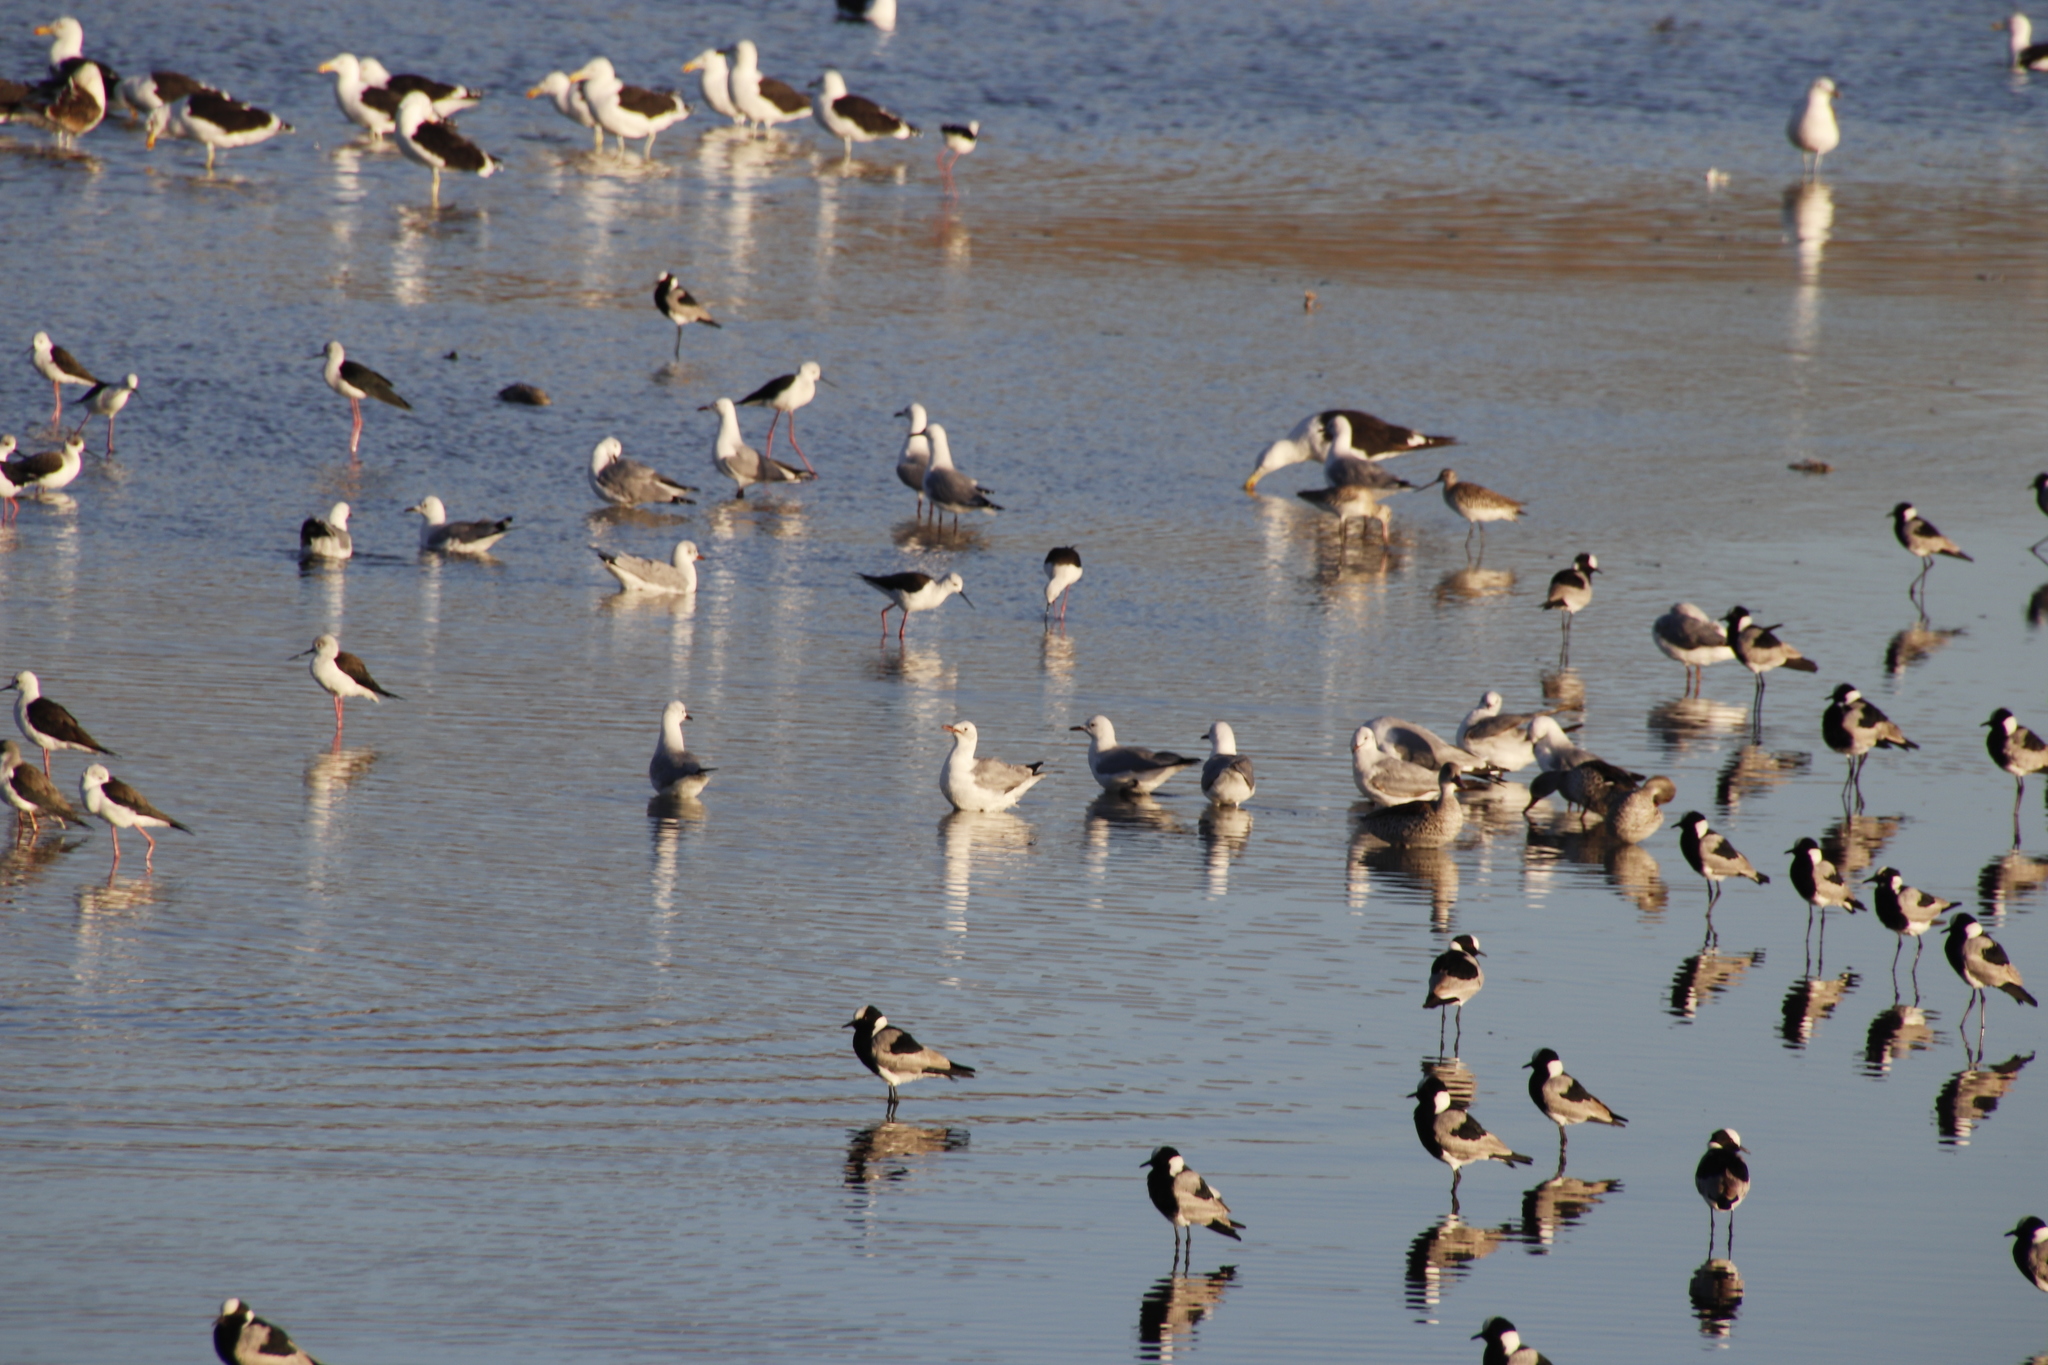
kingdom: Animalia
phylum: Chordata
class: Aves
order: Charadriiformes
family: Laridae
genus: Chroicocephalus
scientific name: Chroicocephalus hartlaubii
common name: Hartlaub's gull
